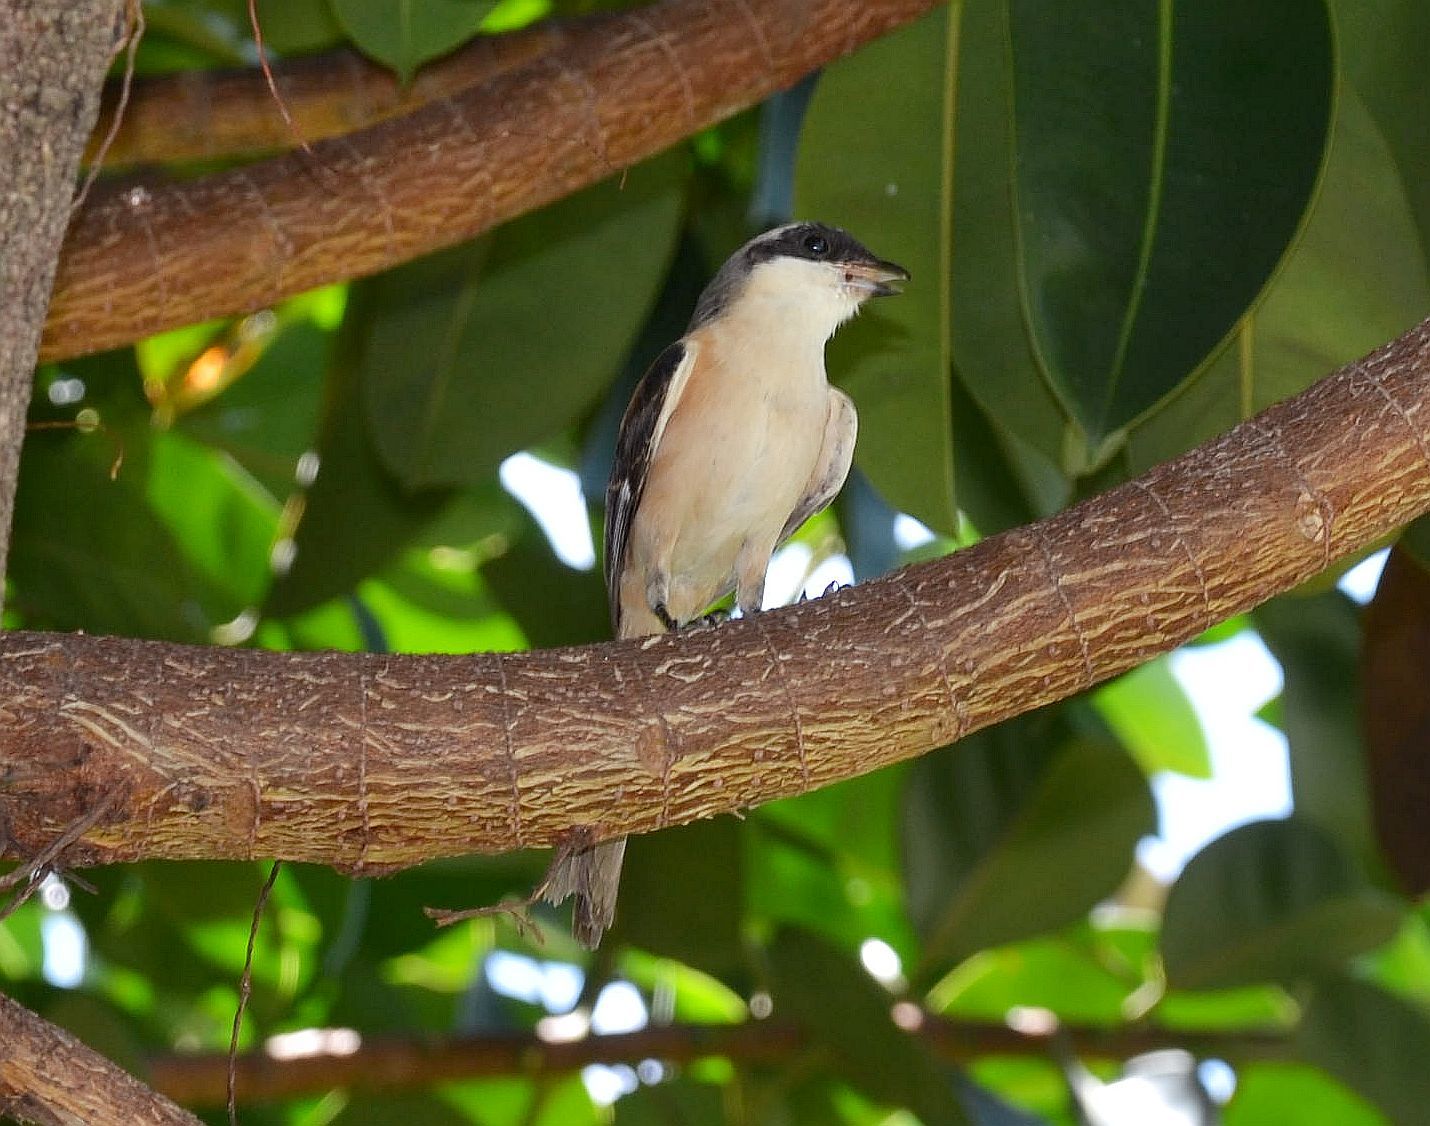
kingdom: Animalia
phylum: Chordata
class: Aves
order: Passeriformes
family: Laniidae
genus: Lanius
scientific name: Lanius schach
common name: Long-tailed shrike
